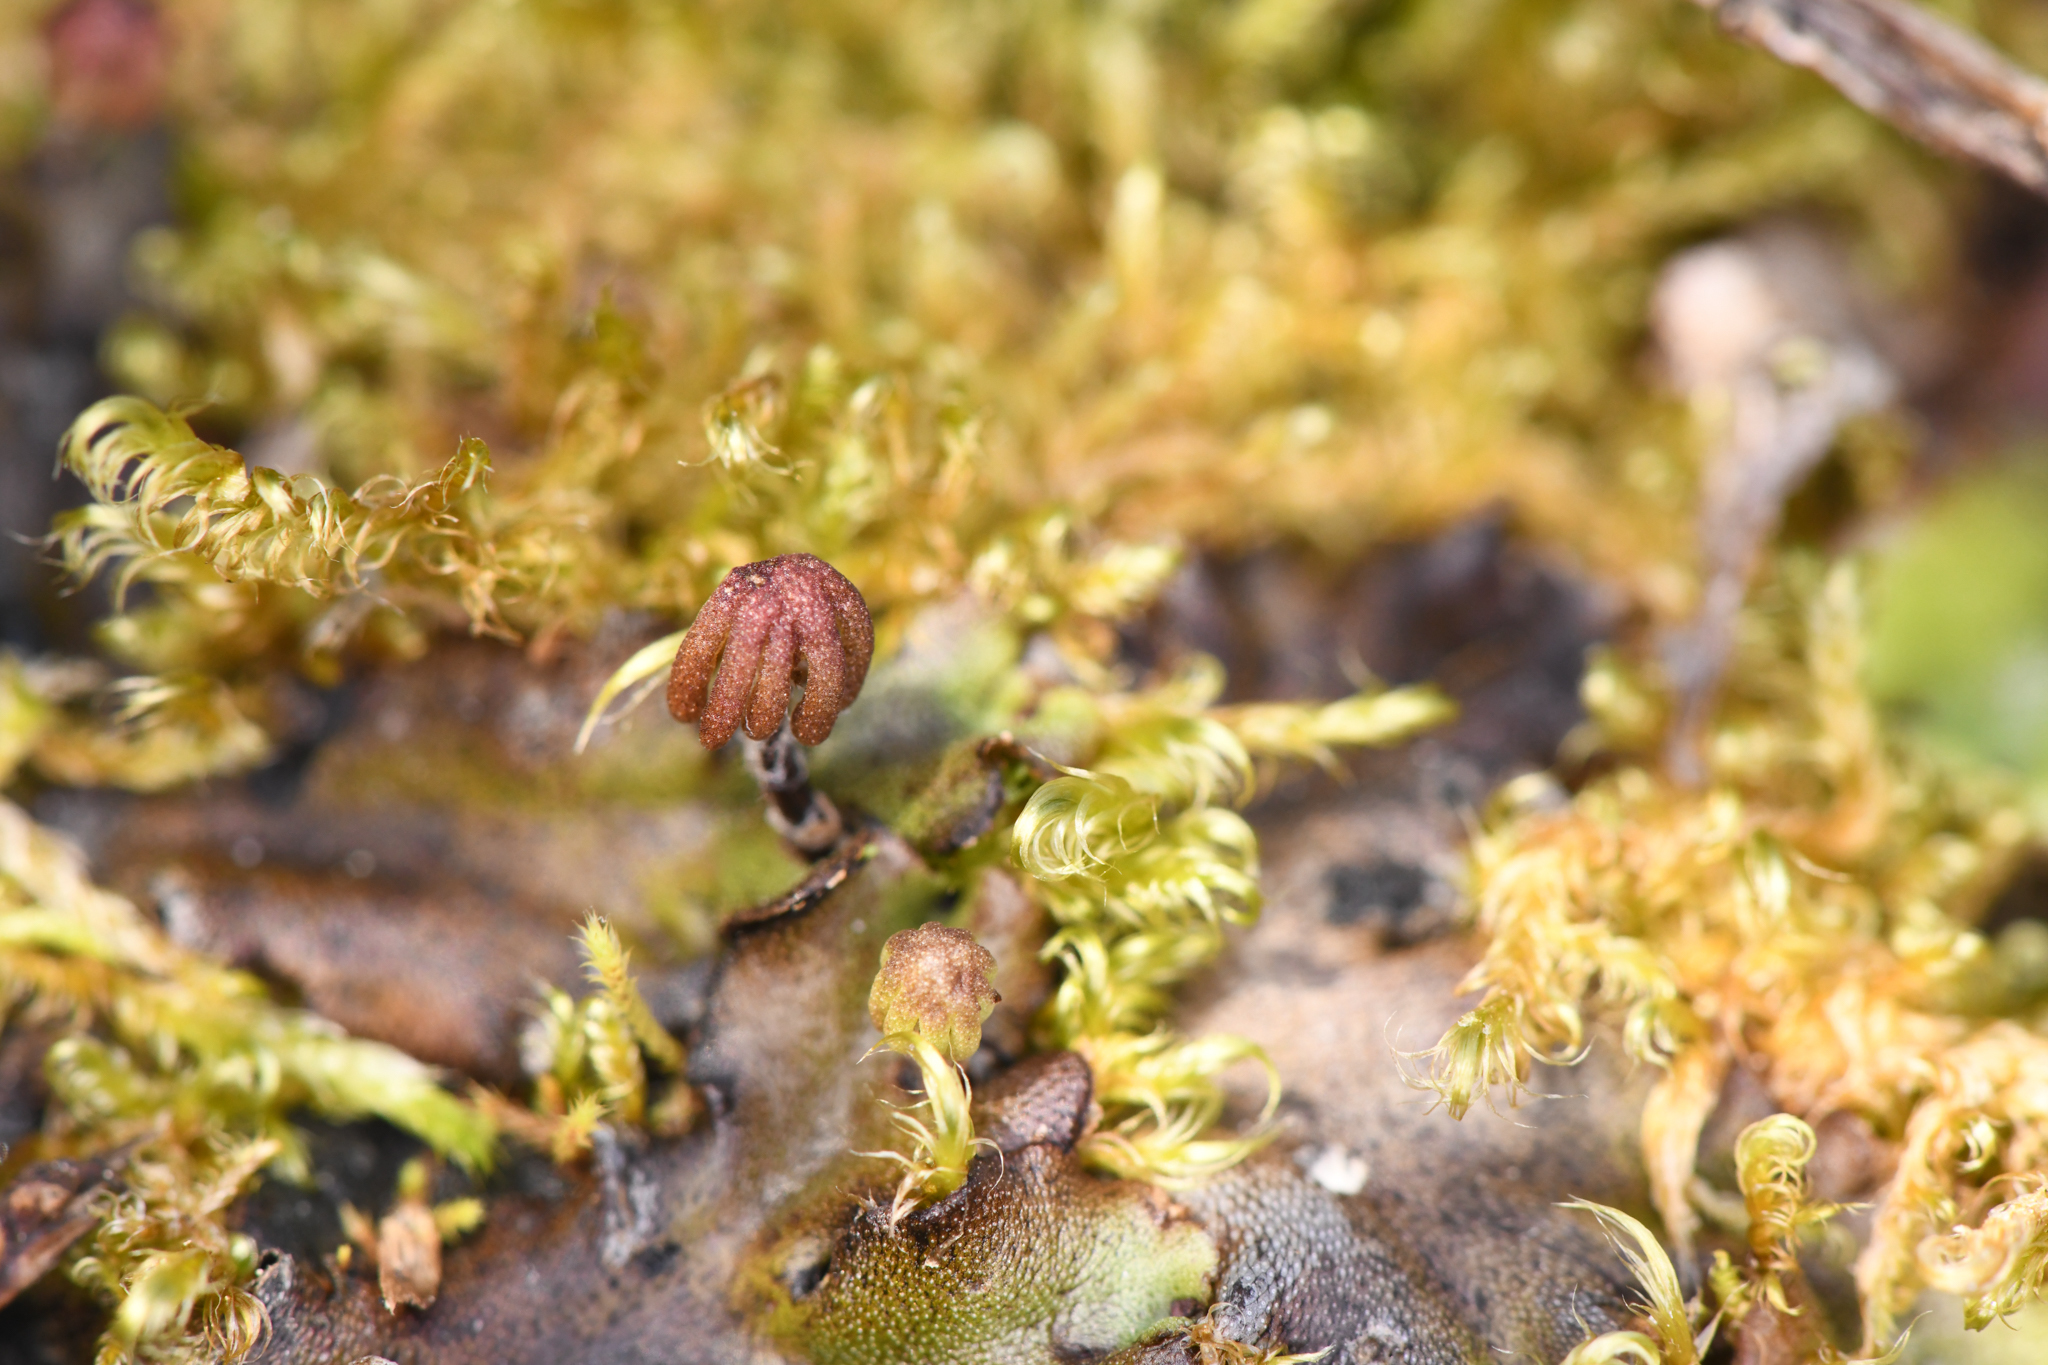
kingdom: Plantae
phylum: Marchantiophyta
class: Marchantiopsida
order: Marchantiales
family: Marchantiaceae
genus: Marchantia
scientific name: Marchantia polymorpha
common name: Common liverwort
